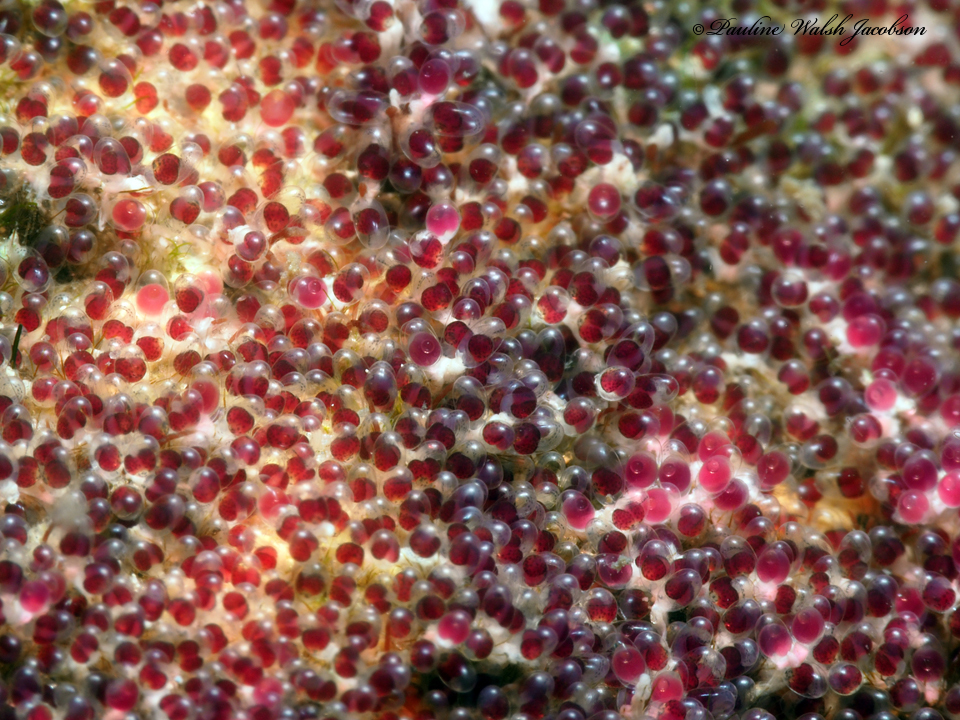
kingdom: Animalia
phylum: Chordata
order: Perciformes
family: Pomacentridae
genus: Abudefduf
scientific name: Abudefduf saxatilis
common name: Sergeant major
